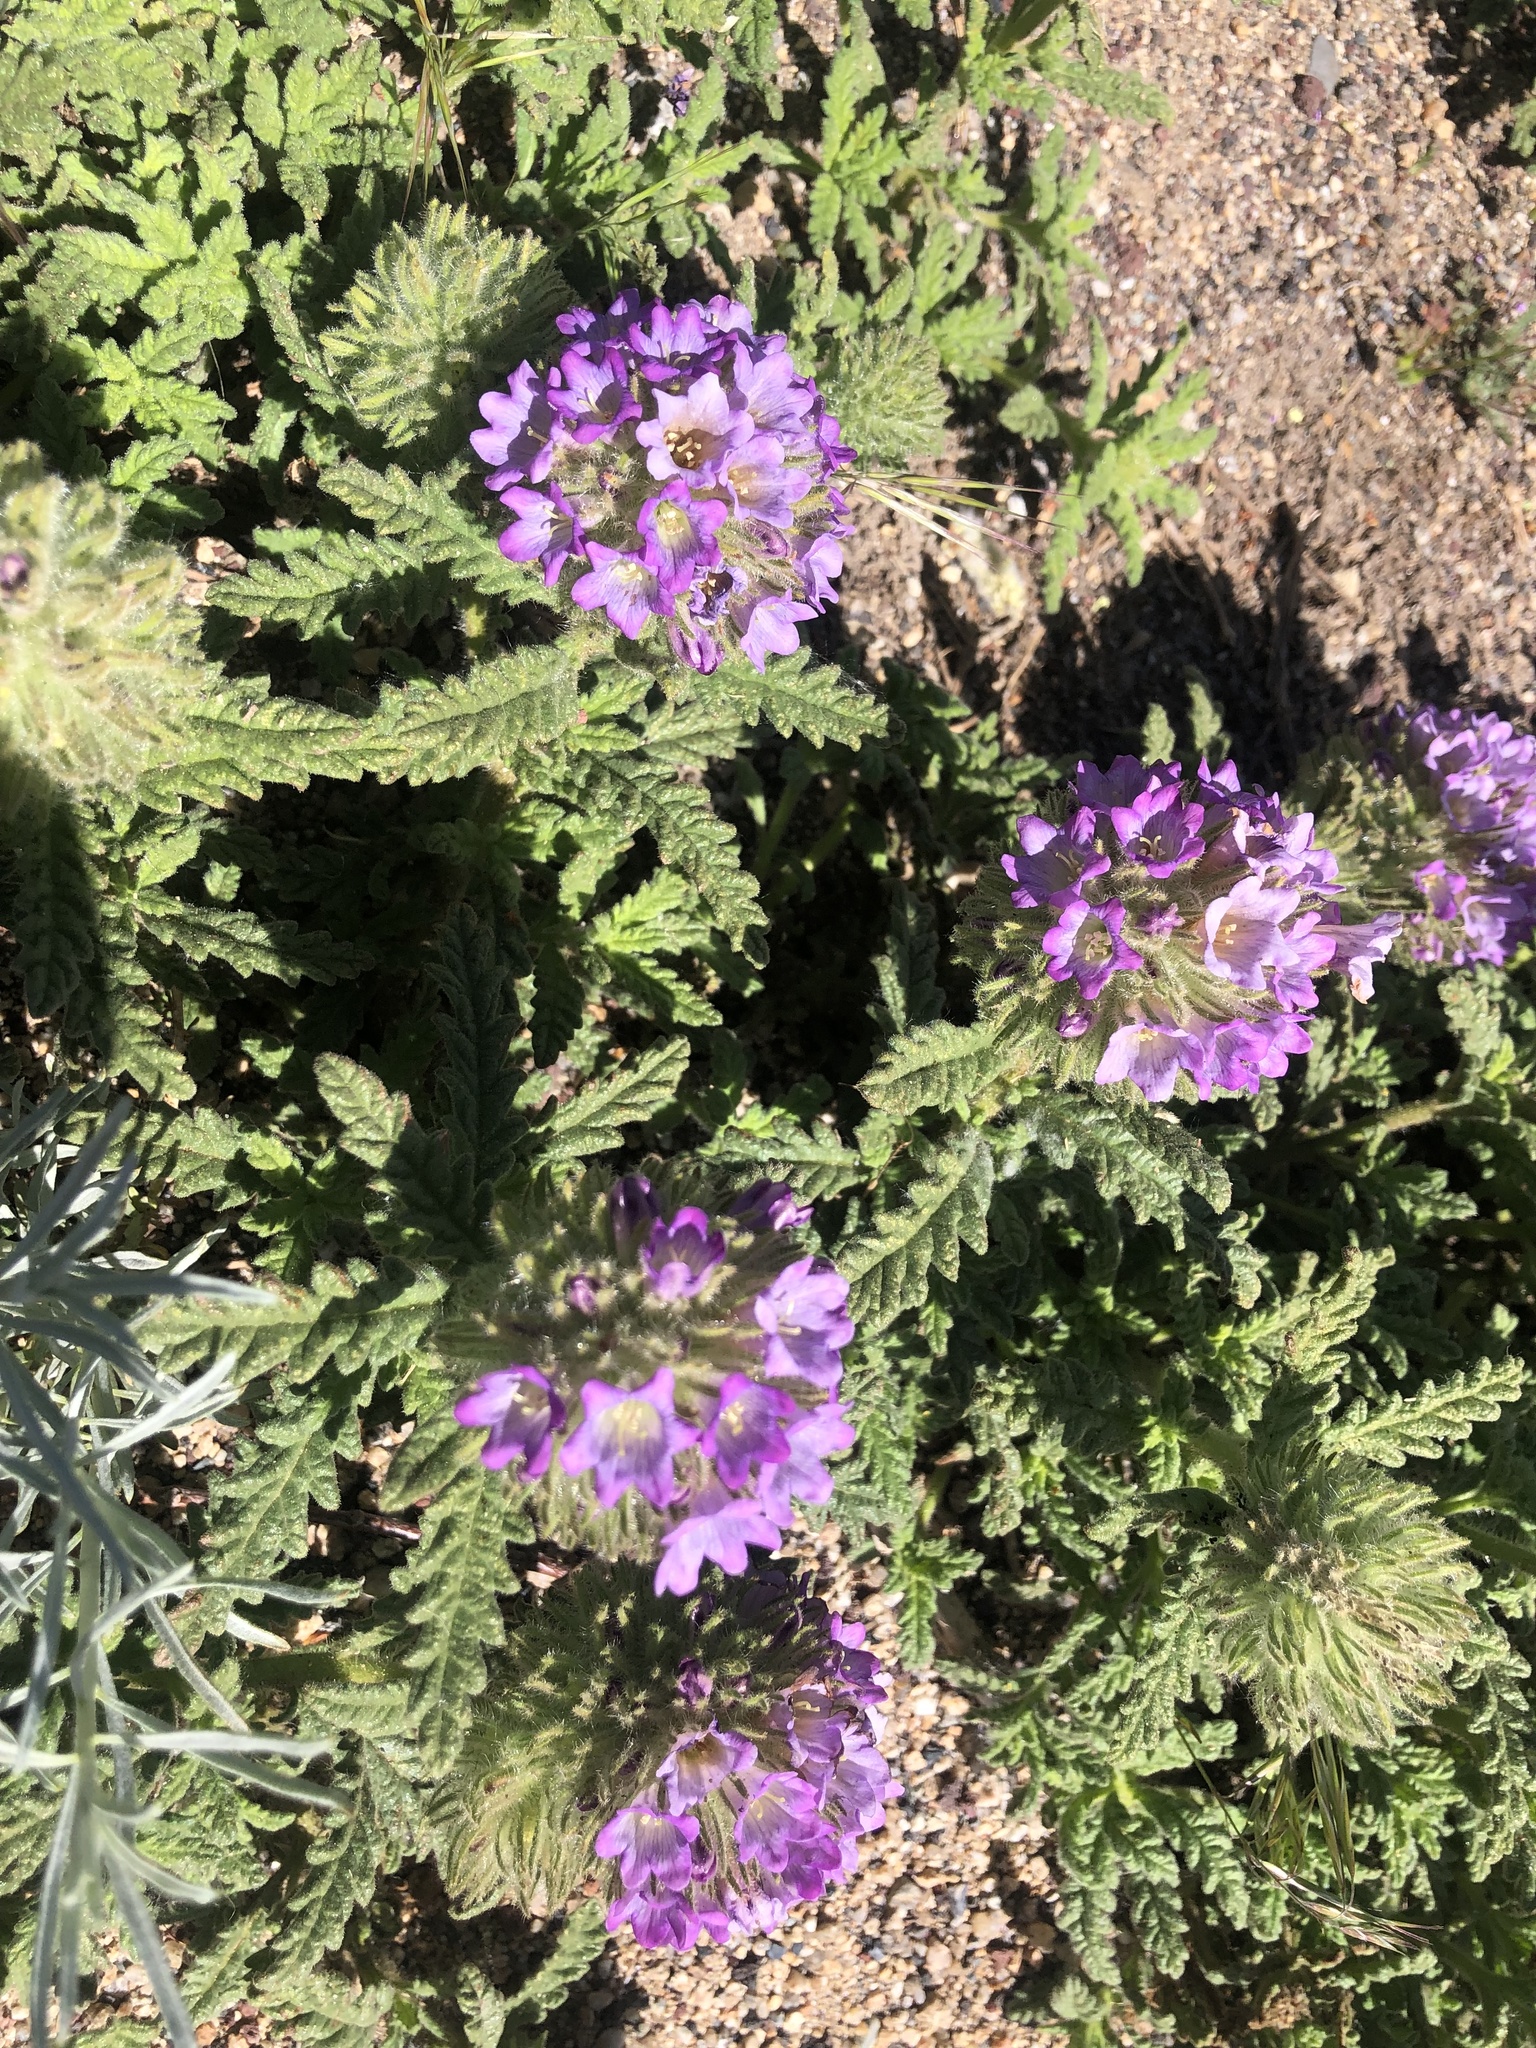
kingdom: Plantae
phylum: Tracheophyta
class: Magnoliopsida
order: Boraginales
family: Namaceae
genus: Nama
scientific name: Nama rothrockii
